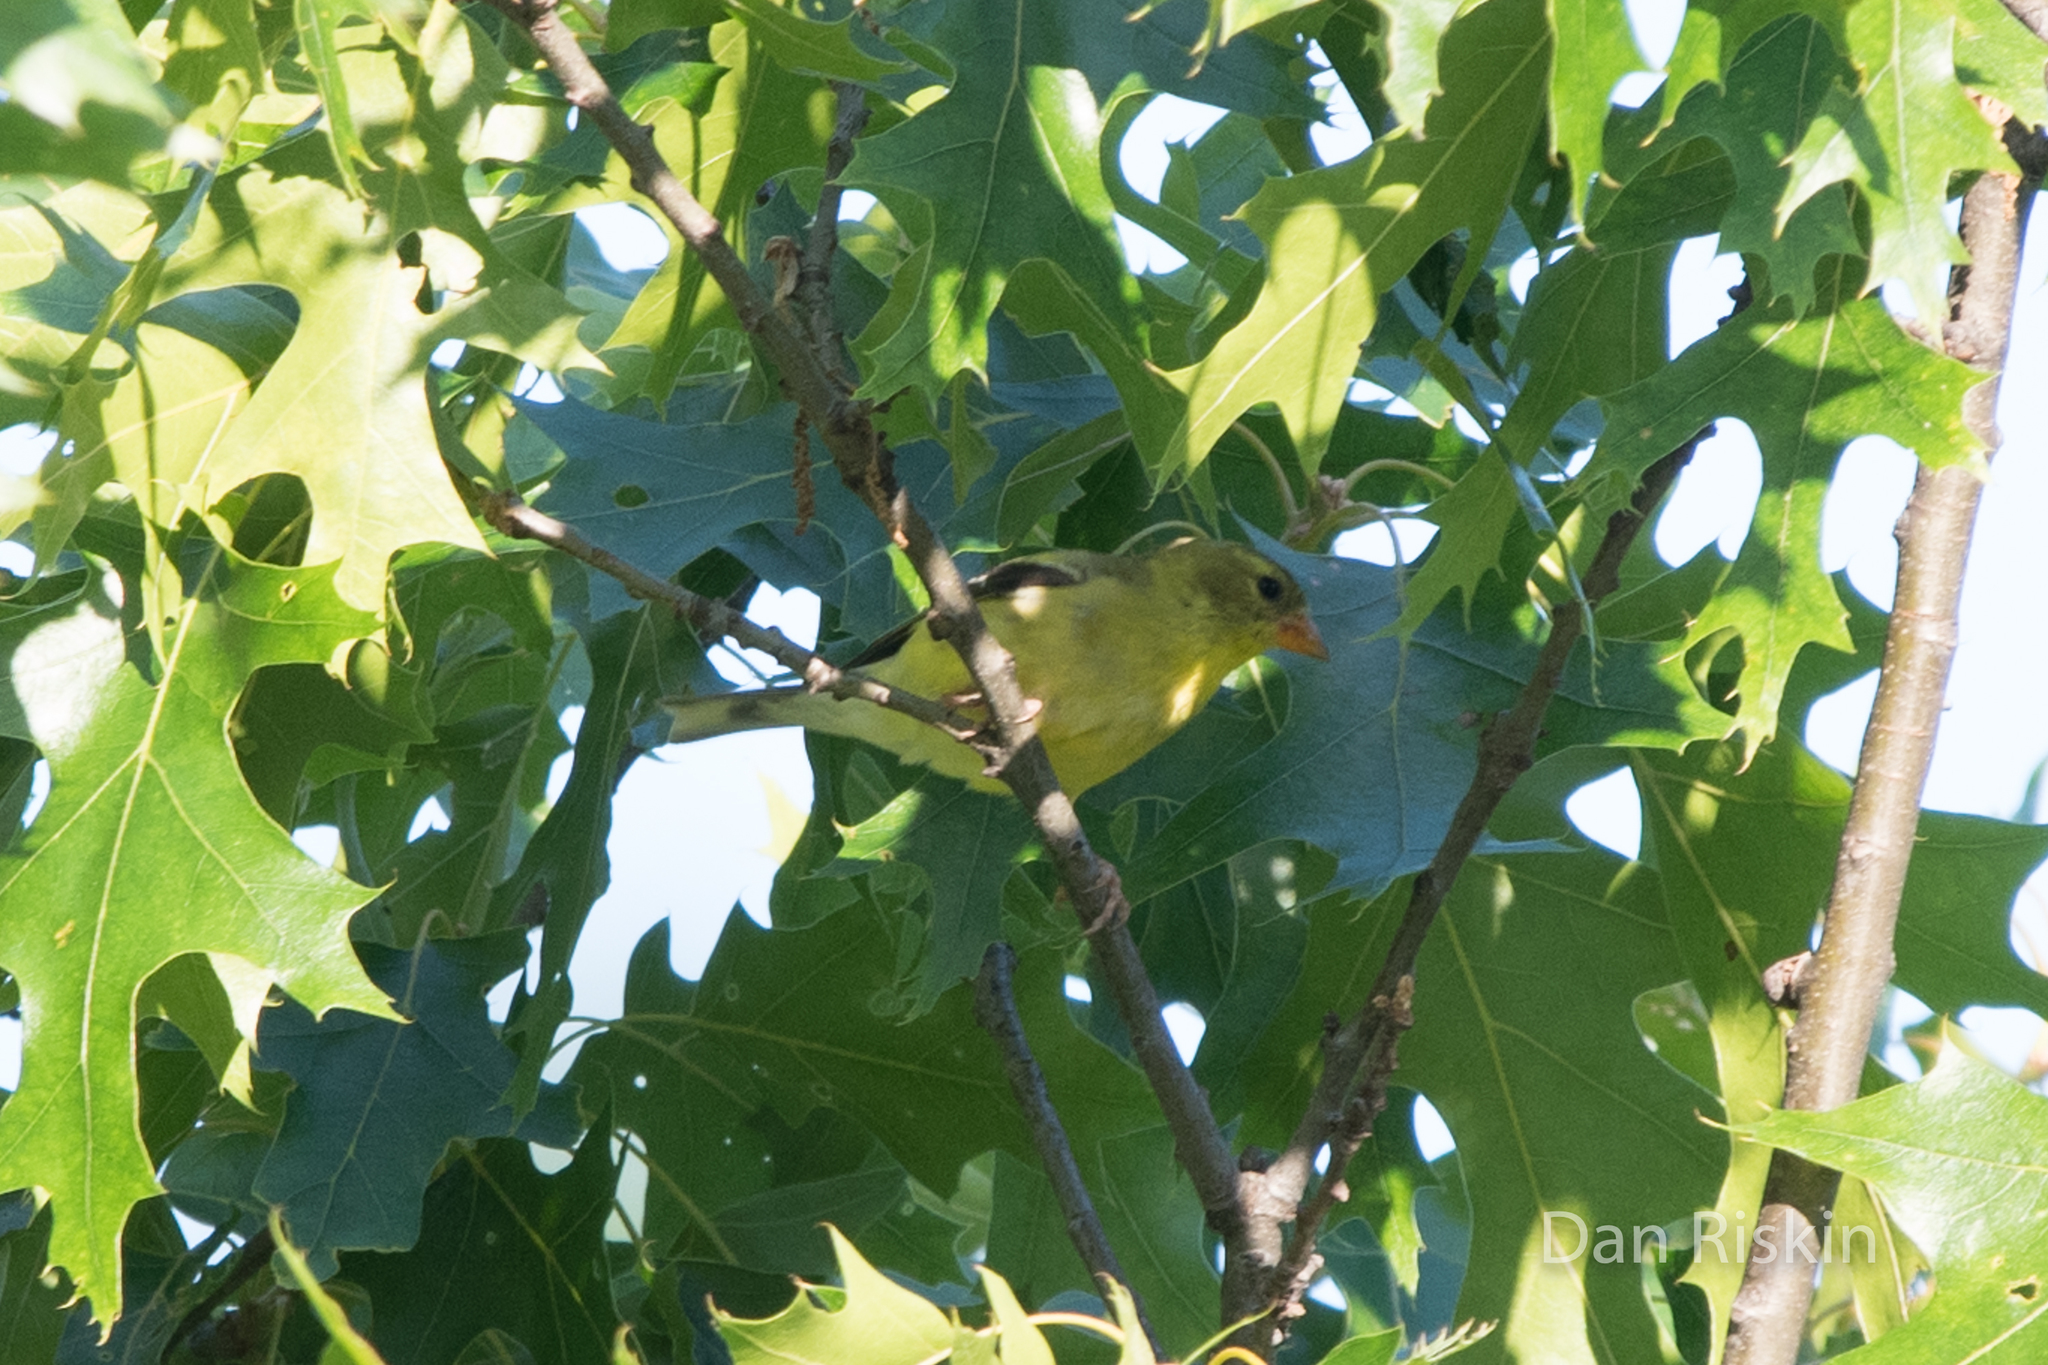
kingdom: Animalia
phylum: Chordata
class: Aves
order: Passeriformes
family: Fringillidae
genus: Spinus
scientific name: Spinus tristis
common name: American goldfinch
